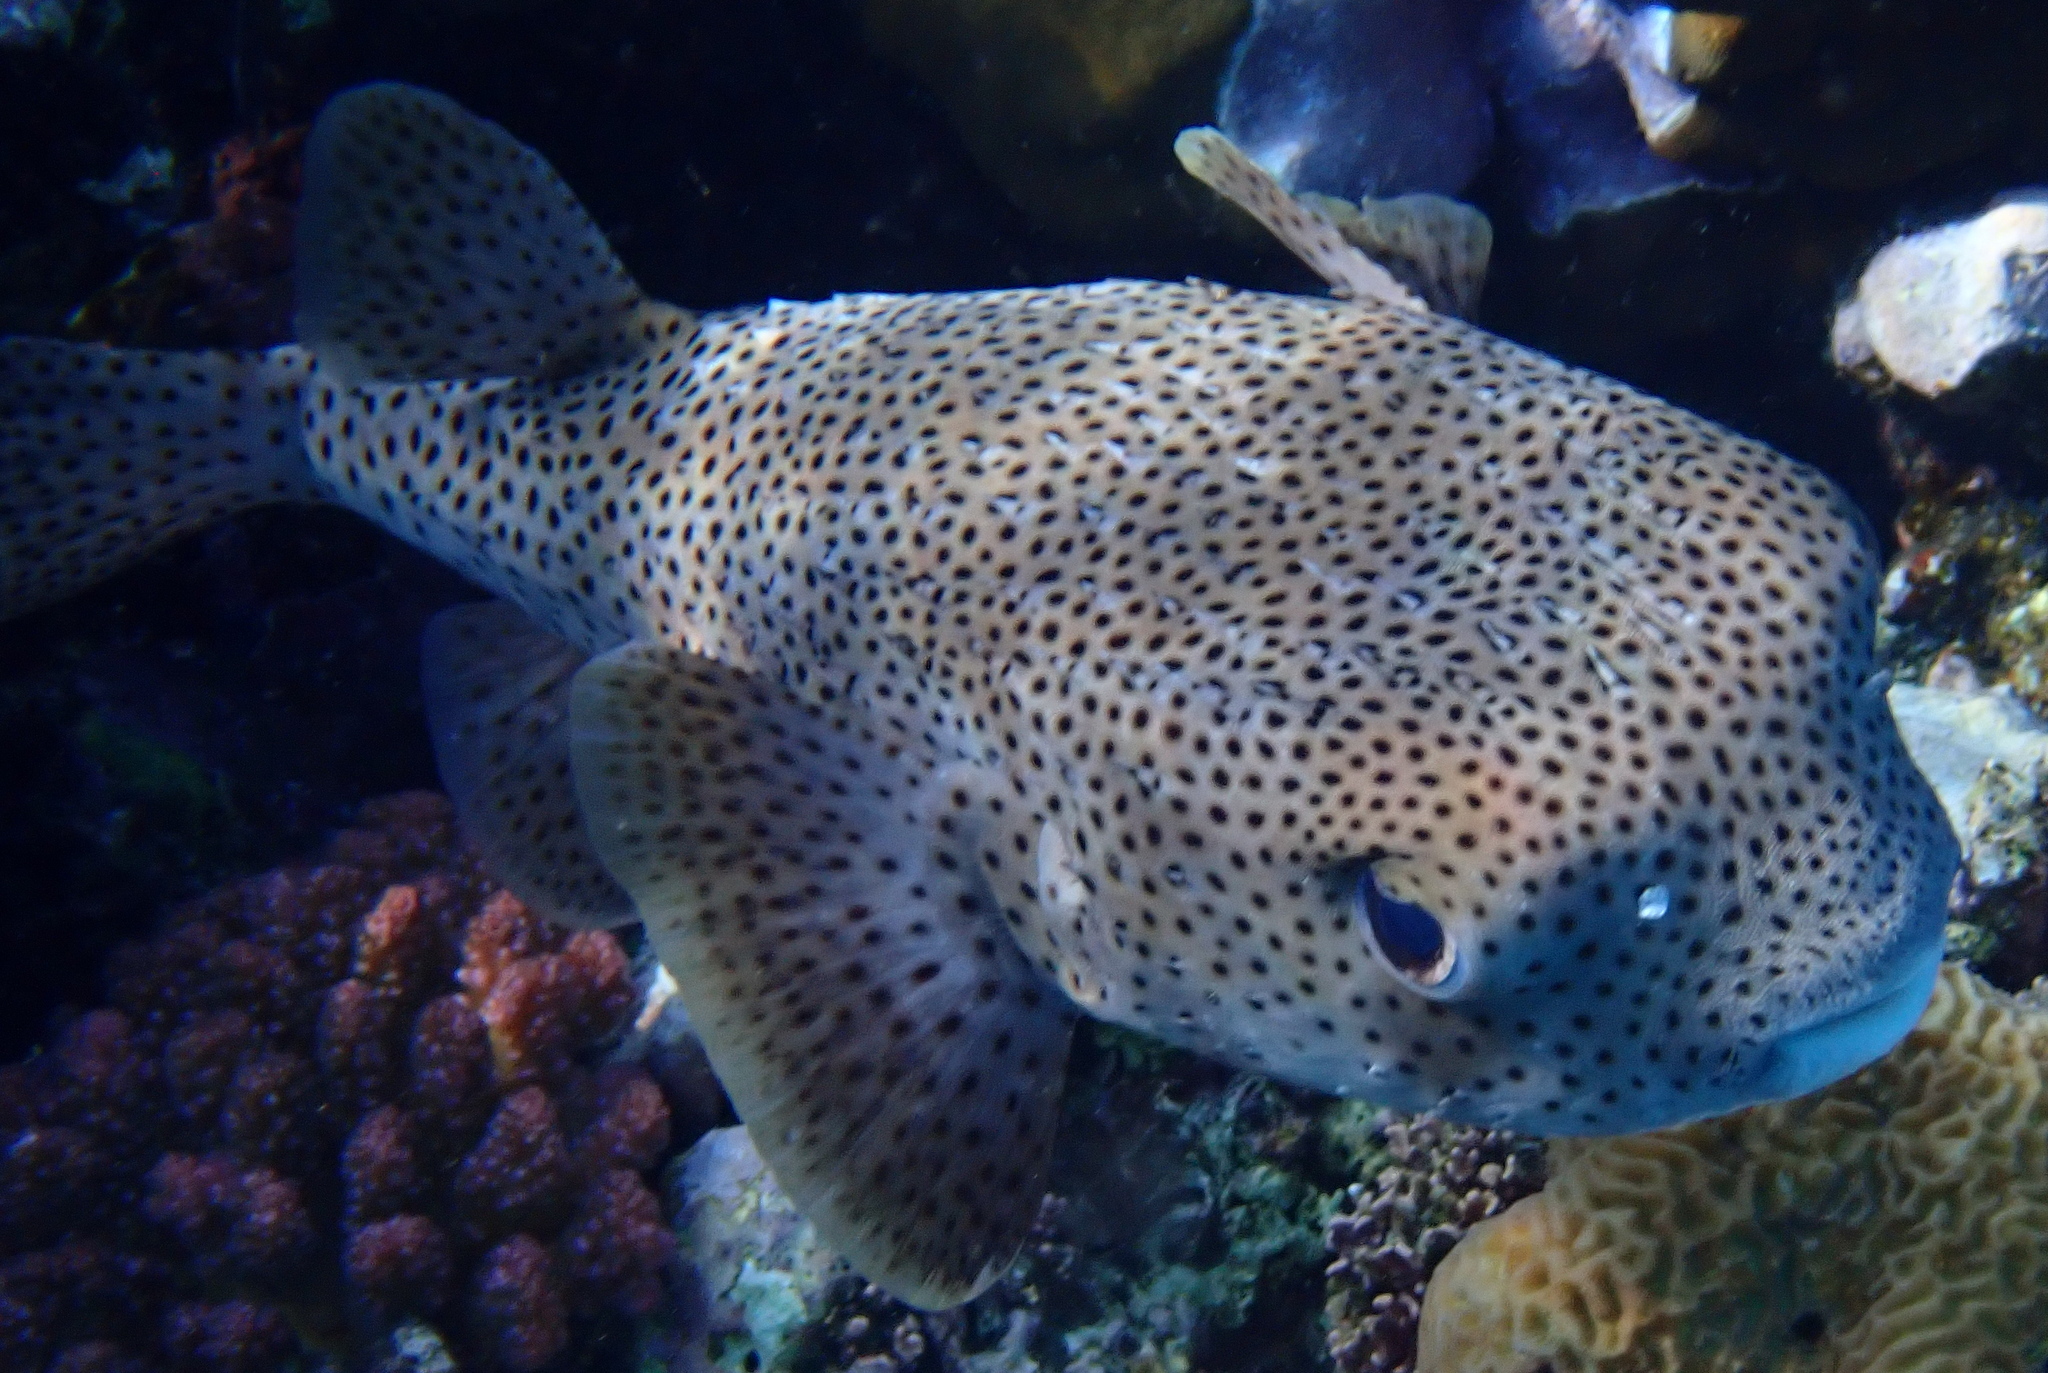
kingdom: Animalia
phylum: Chordata
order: Tetraodontiformes
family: Diodontidae
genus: Diodon
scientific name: Diodon hystrix
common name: Giant porcupinefish
